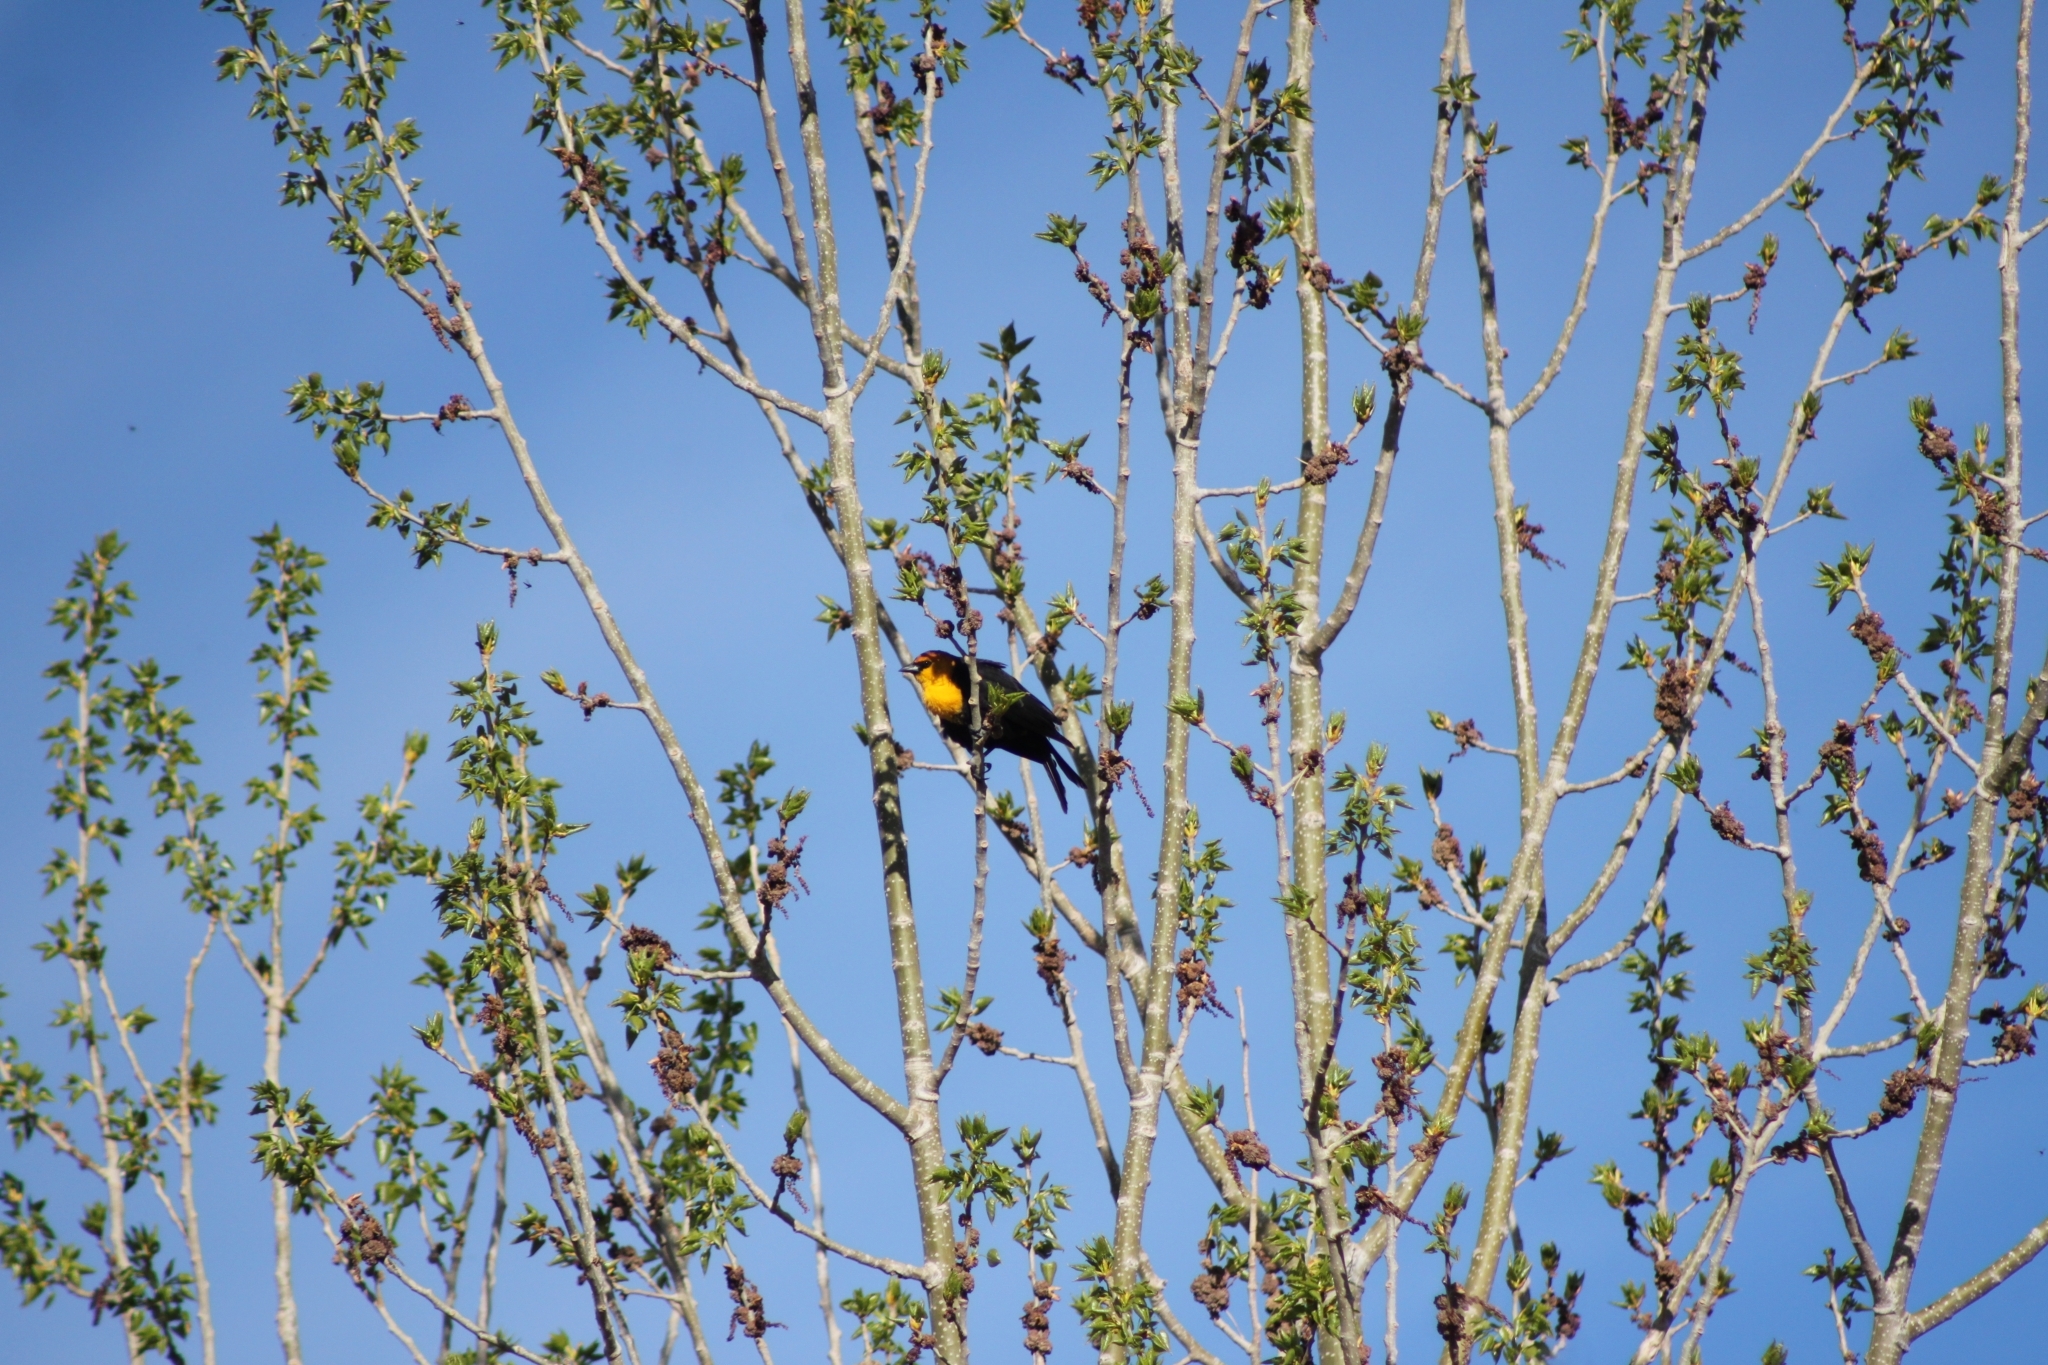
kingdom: Animalia
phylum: Chordata
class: Aves
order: Passeriformes
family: Icteridae
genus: Xanthocephalus
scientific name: Xanthocephalus xanthocephalus
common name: Yellow-headed blackbird
